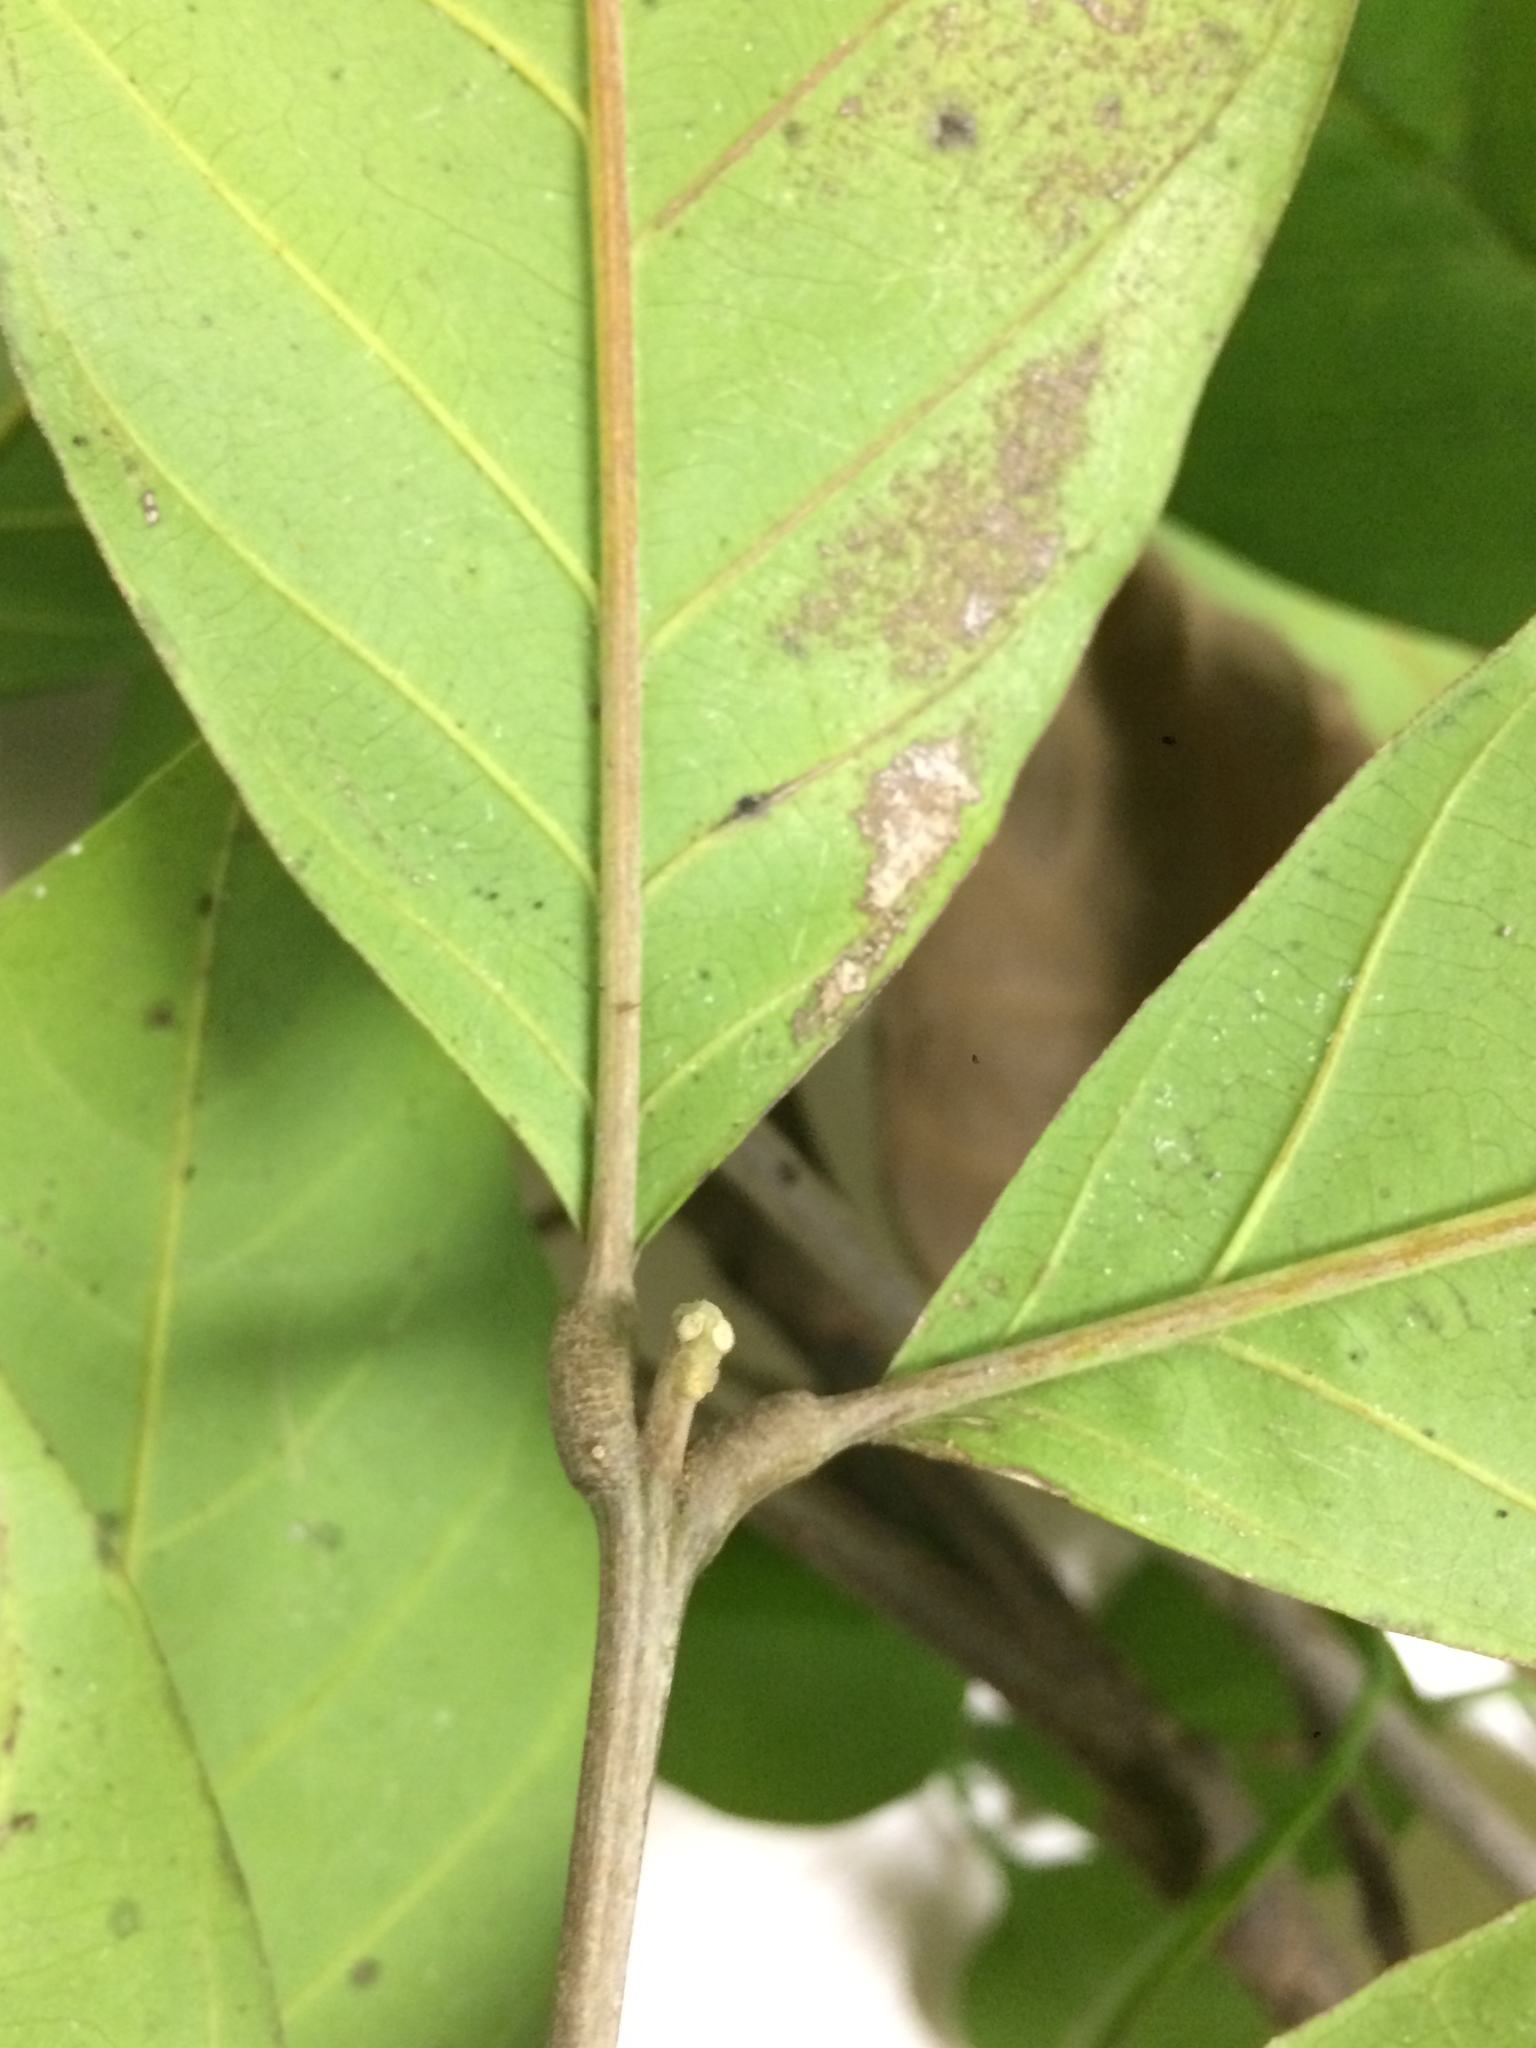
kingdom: Plantae
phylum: Tracheophyta
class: Magnoliopsida
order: Sapindales
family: Meliaceae
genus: Guarea
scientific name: Guarea guidonia
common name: American muskwood
